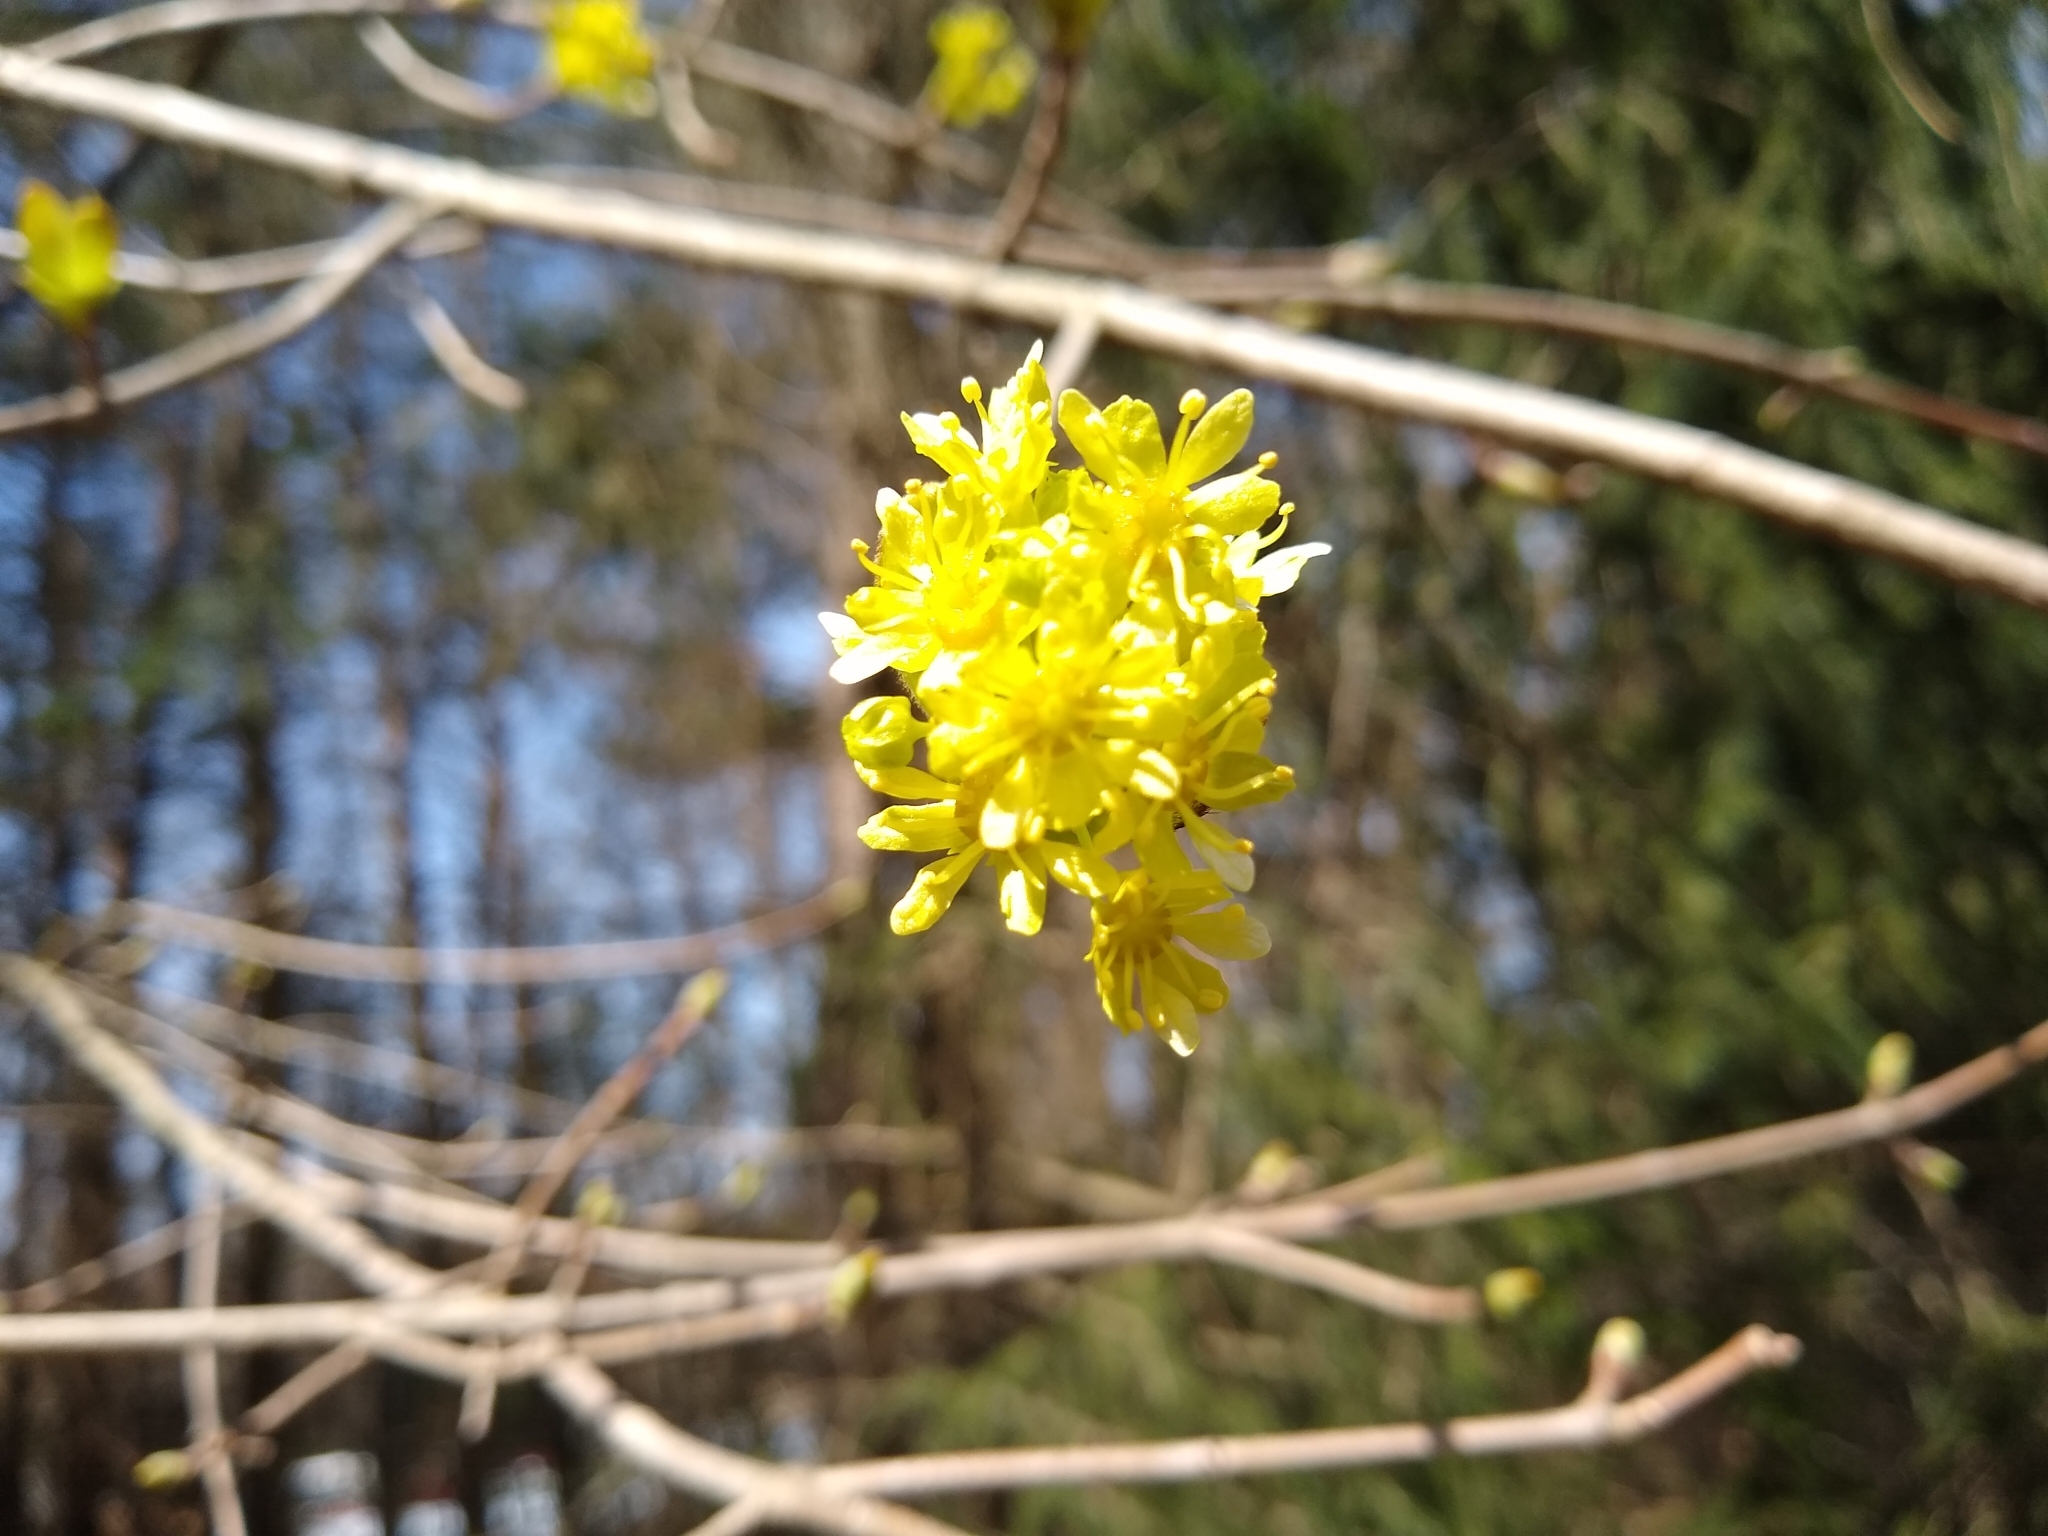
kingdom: Plantae
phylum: Tracheophyta
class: Magnoliopsida
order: Laurales
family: Lauraceae
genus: Sassafras
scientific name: Sassafras albidum
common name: Sassafras
